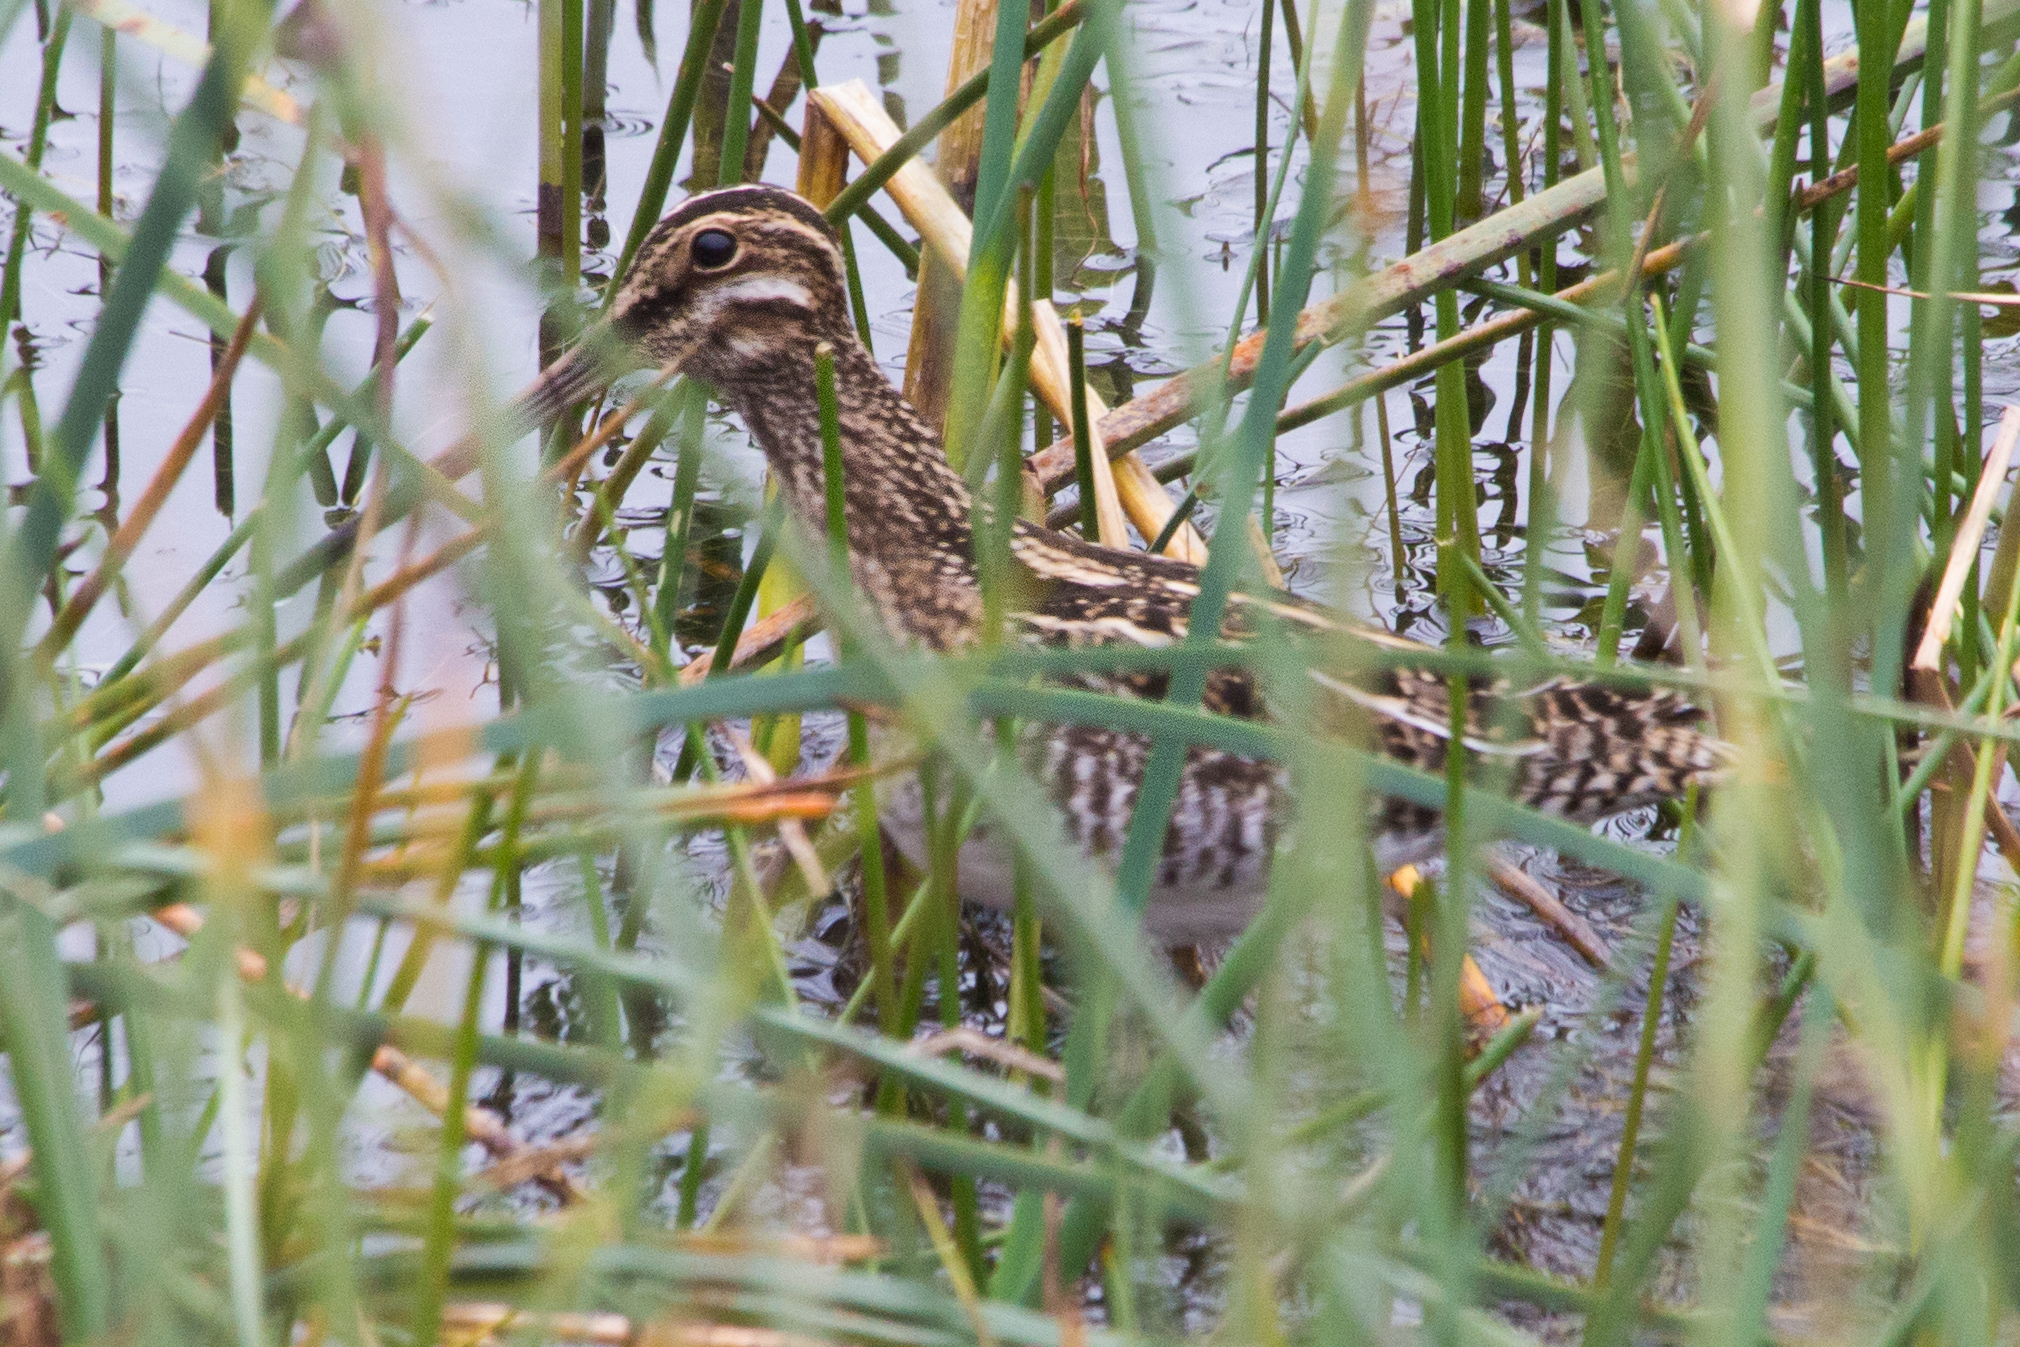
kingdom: Animalia
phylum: Chordata
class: Aves
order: Charadriiformes
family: Scolopacidae
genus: Gallinago
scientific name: Gallinago delicata
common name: Wilson's snipe
